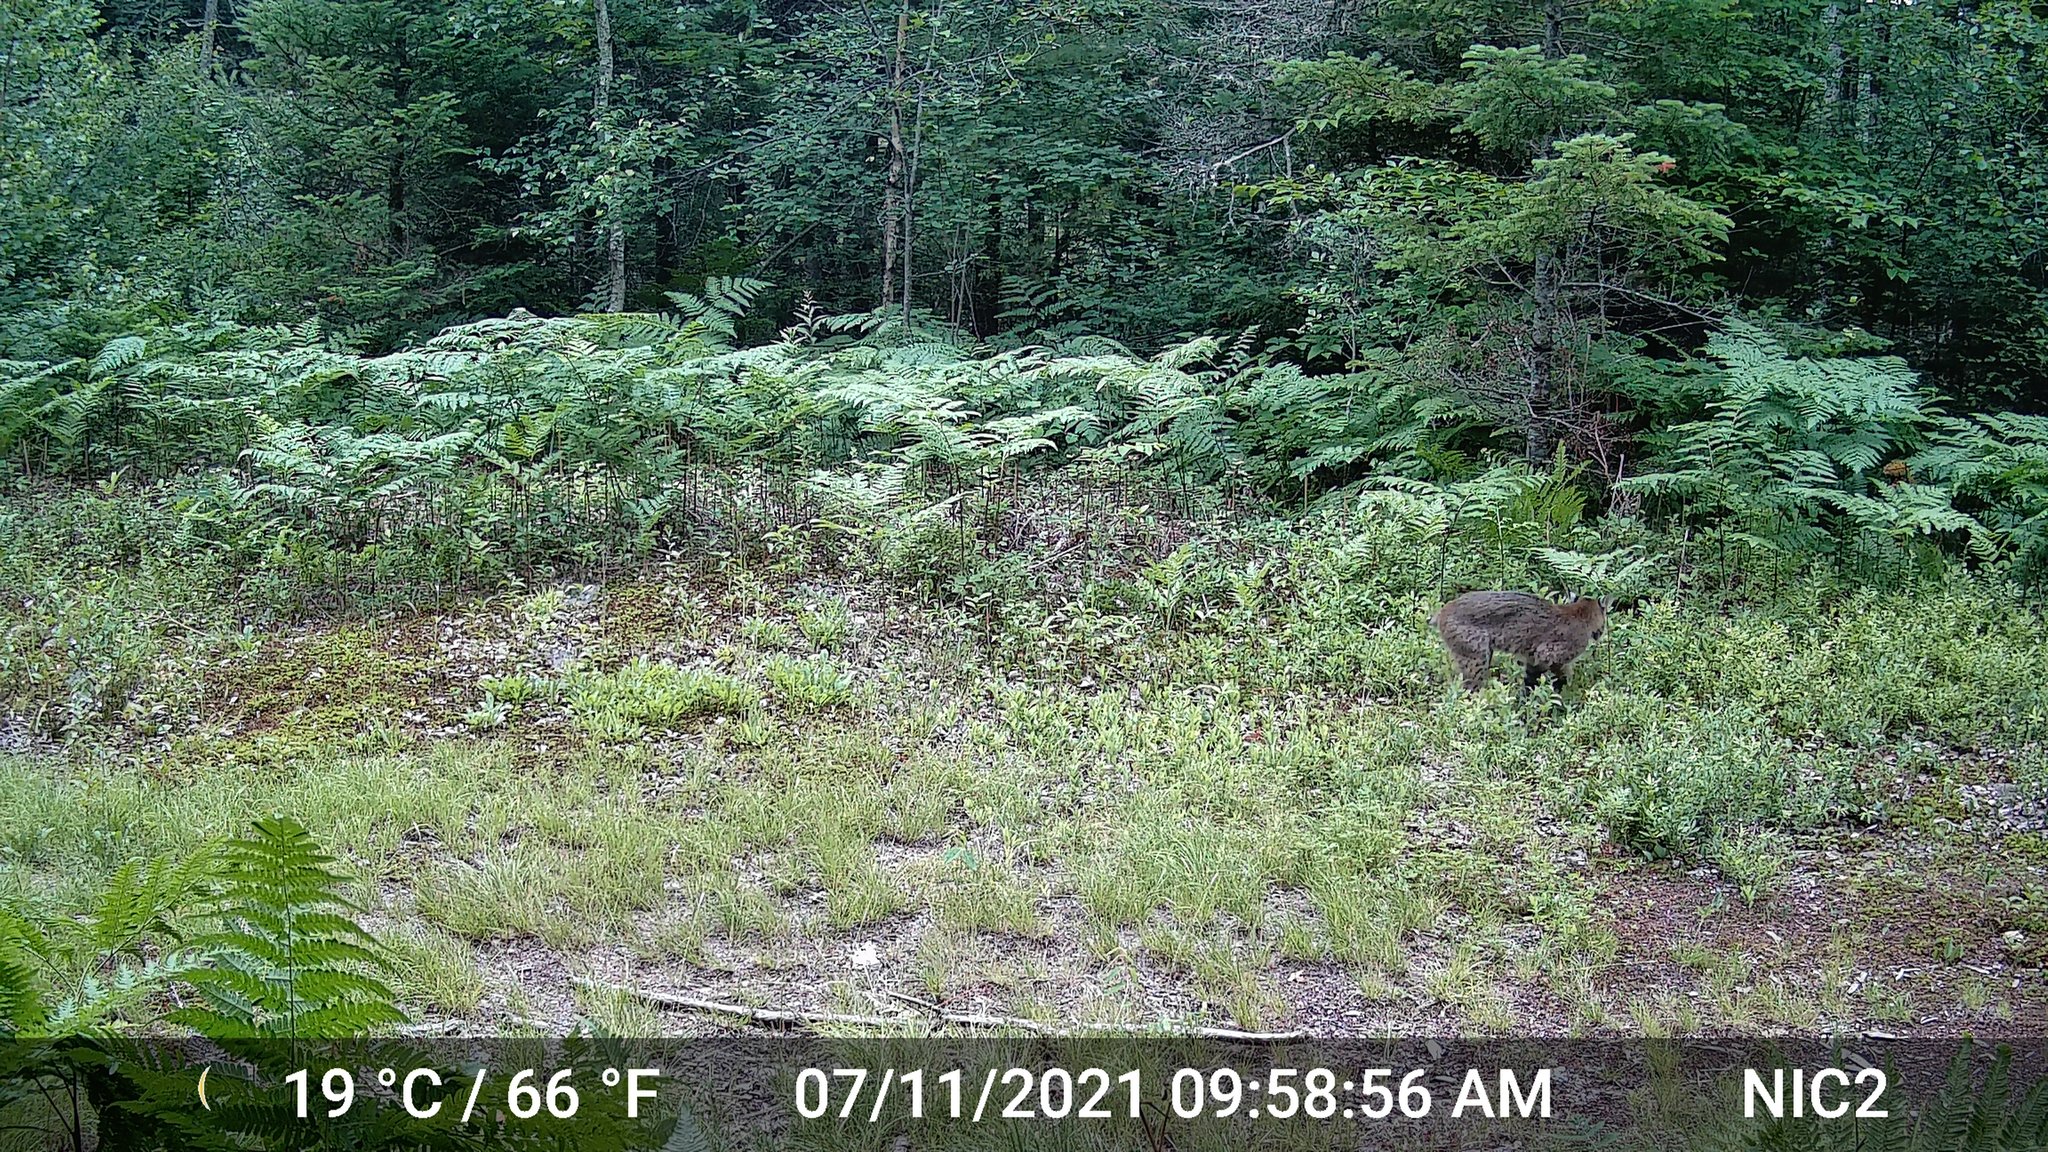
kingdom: Animalia
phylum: Chordata
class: Mammalia
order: Carnivora
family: Felidae
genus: Lynx
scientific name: Lynx rufus
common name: Bobcat
